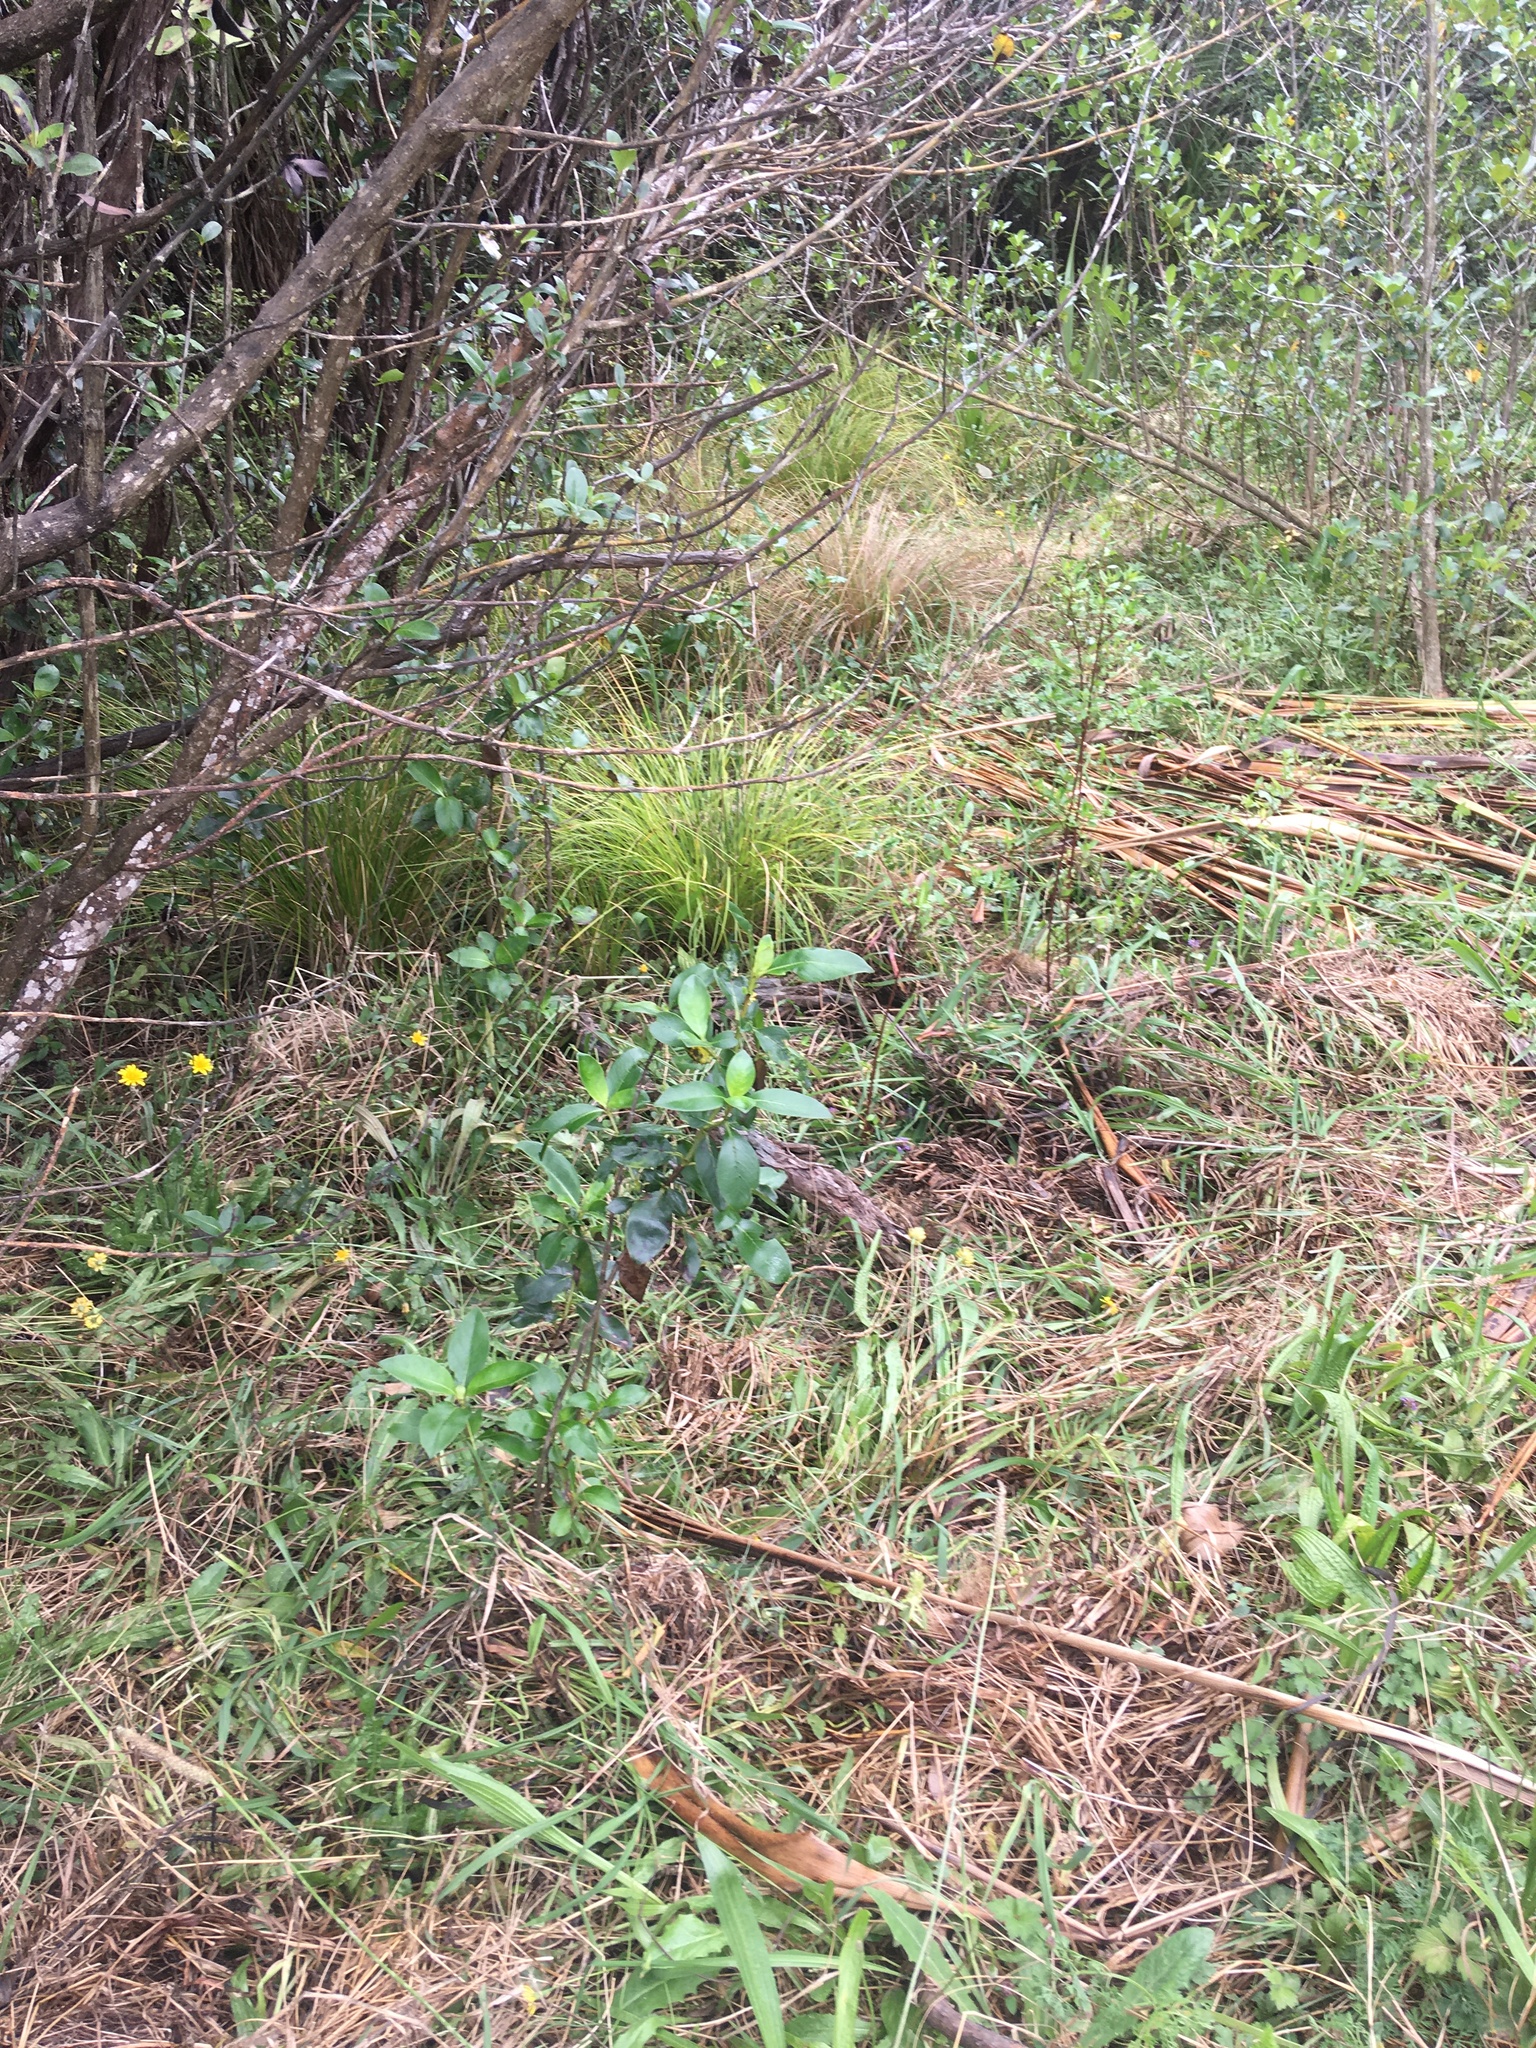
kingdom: Plantae
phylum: Tracheophyta
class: Magnoliopsida
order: Gentianales
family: Rubiaceae
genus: Coprosma
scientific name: Coprosma robusta
